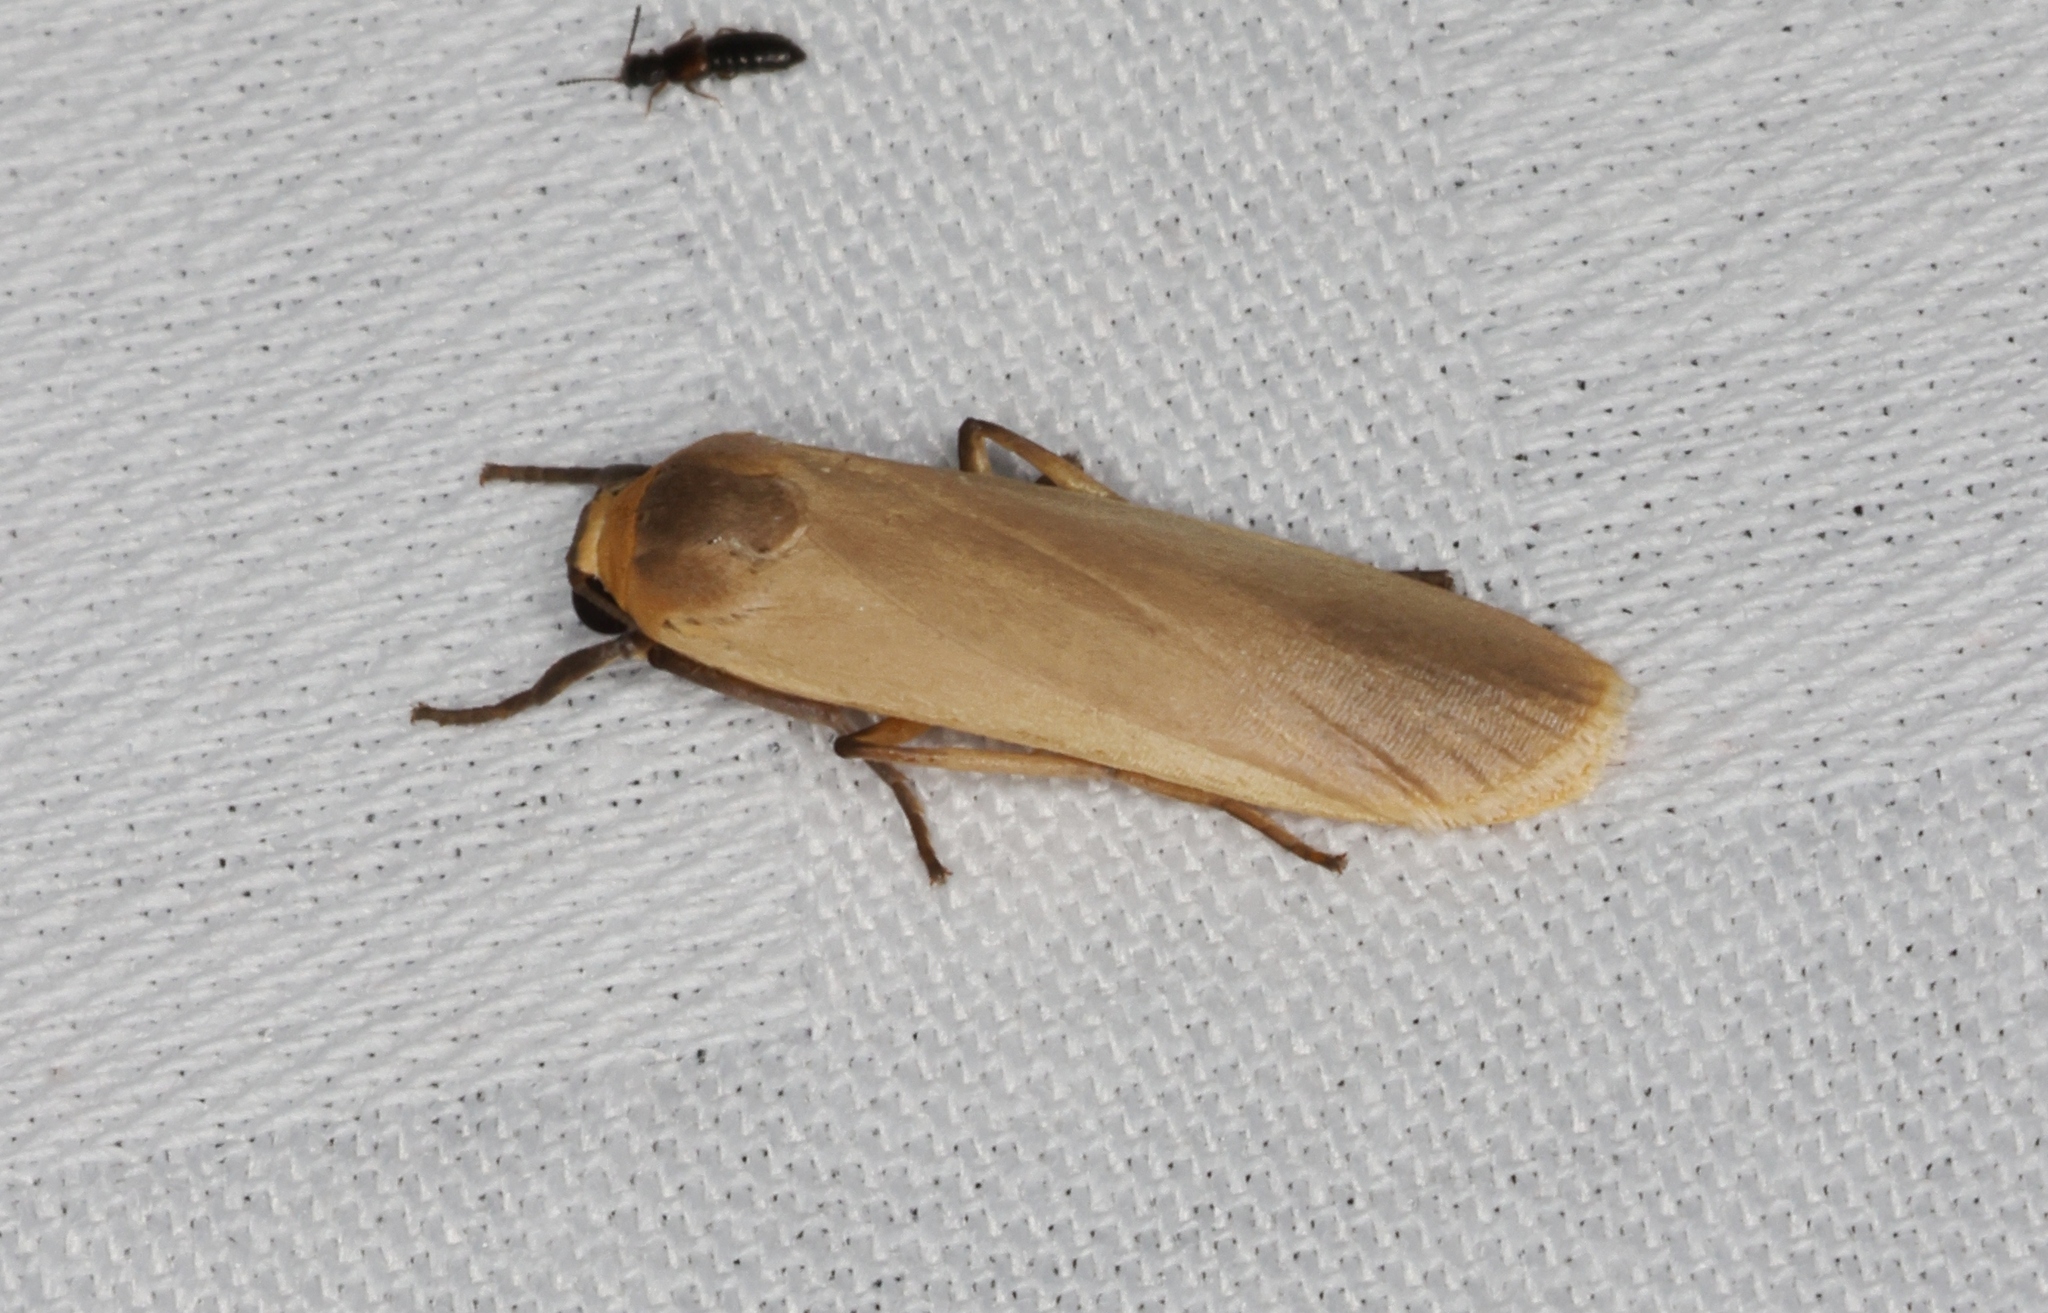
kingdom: Animalia
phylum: Arthropoda
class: Insecta
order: Lepidoptera
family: Erebidae
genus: Brunia
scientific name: Brunia antica
